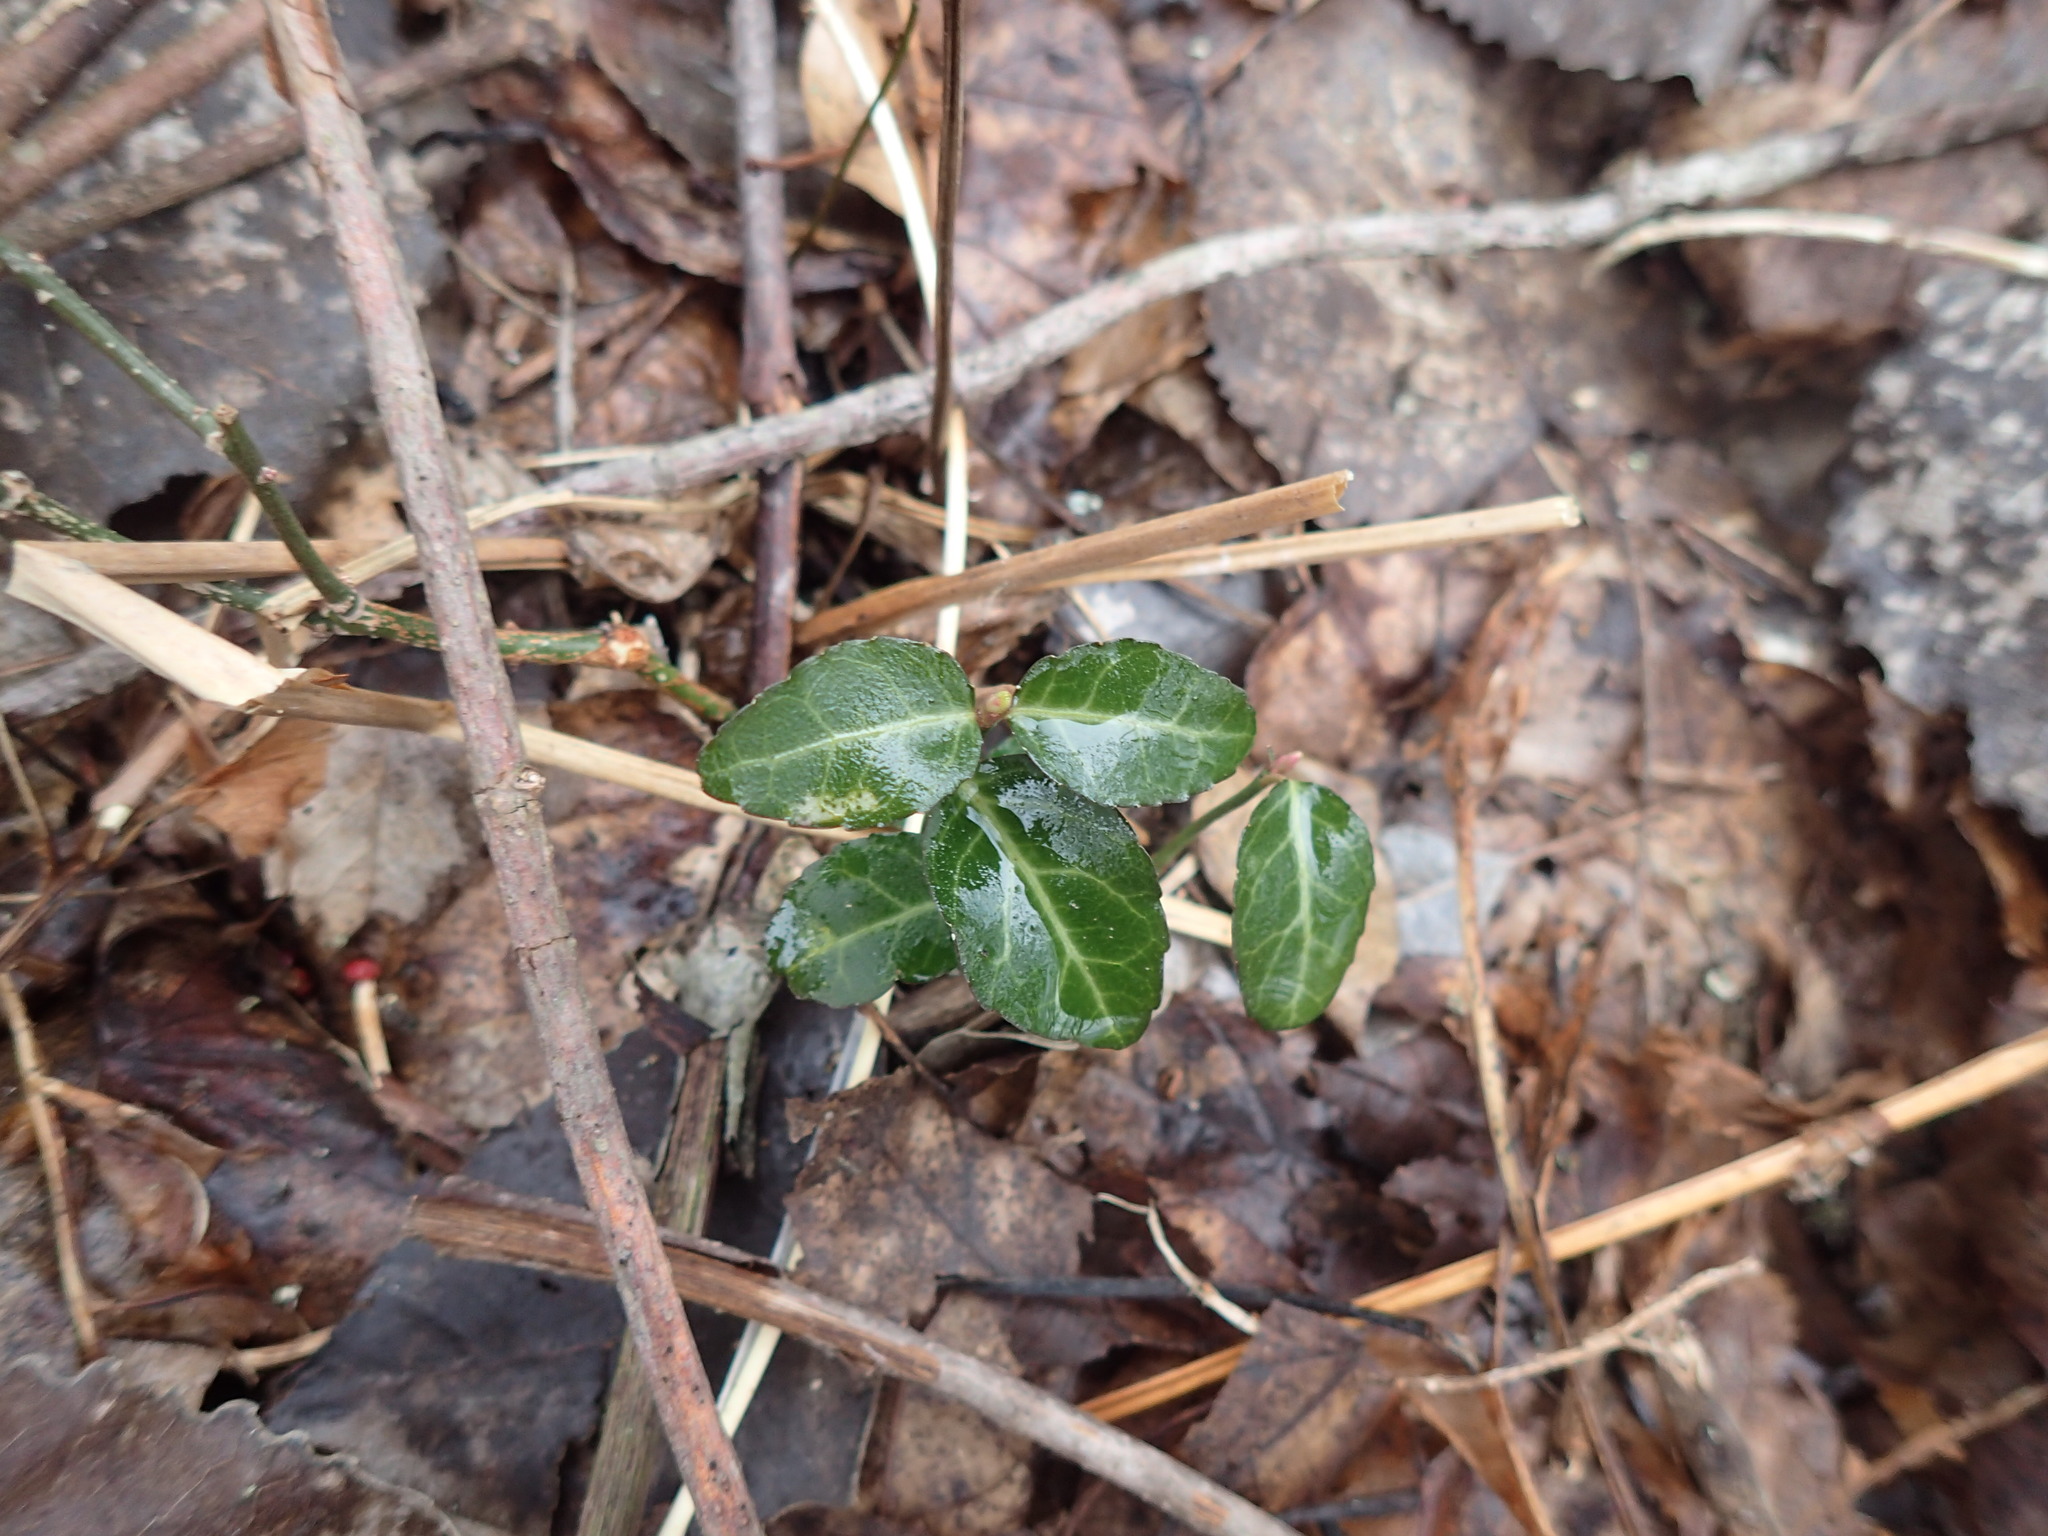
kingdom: Plantae
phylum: Tracheophyta
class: Magnoliopsida
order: Celastrales
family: Celastraceae
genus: Euonymus
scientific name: Euonymus fortunei
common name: Climbing euonymus
